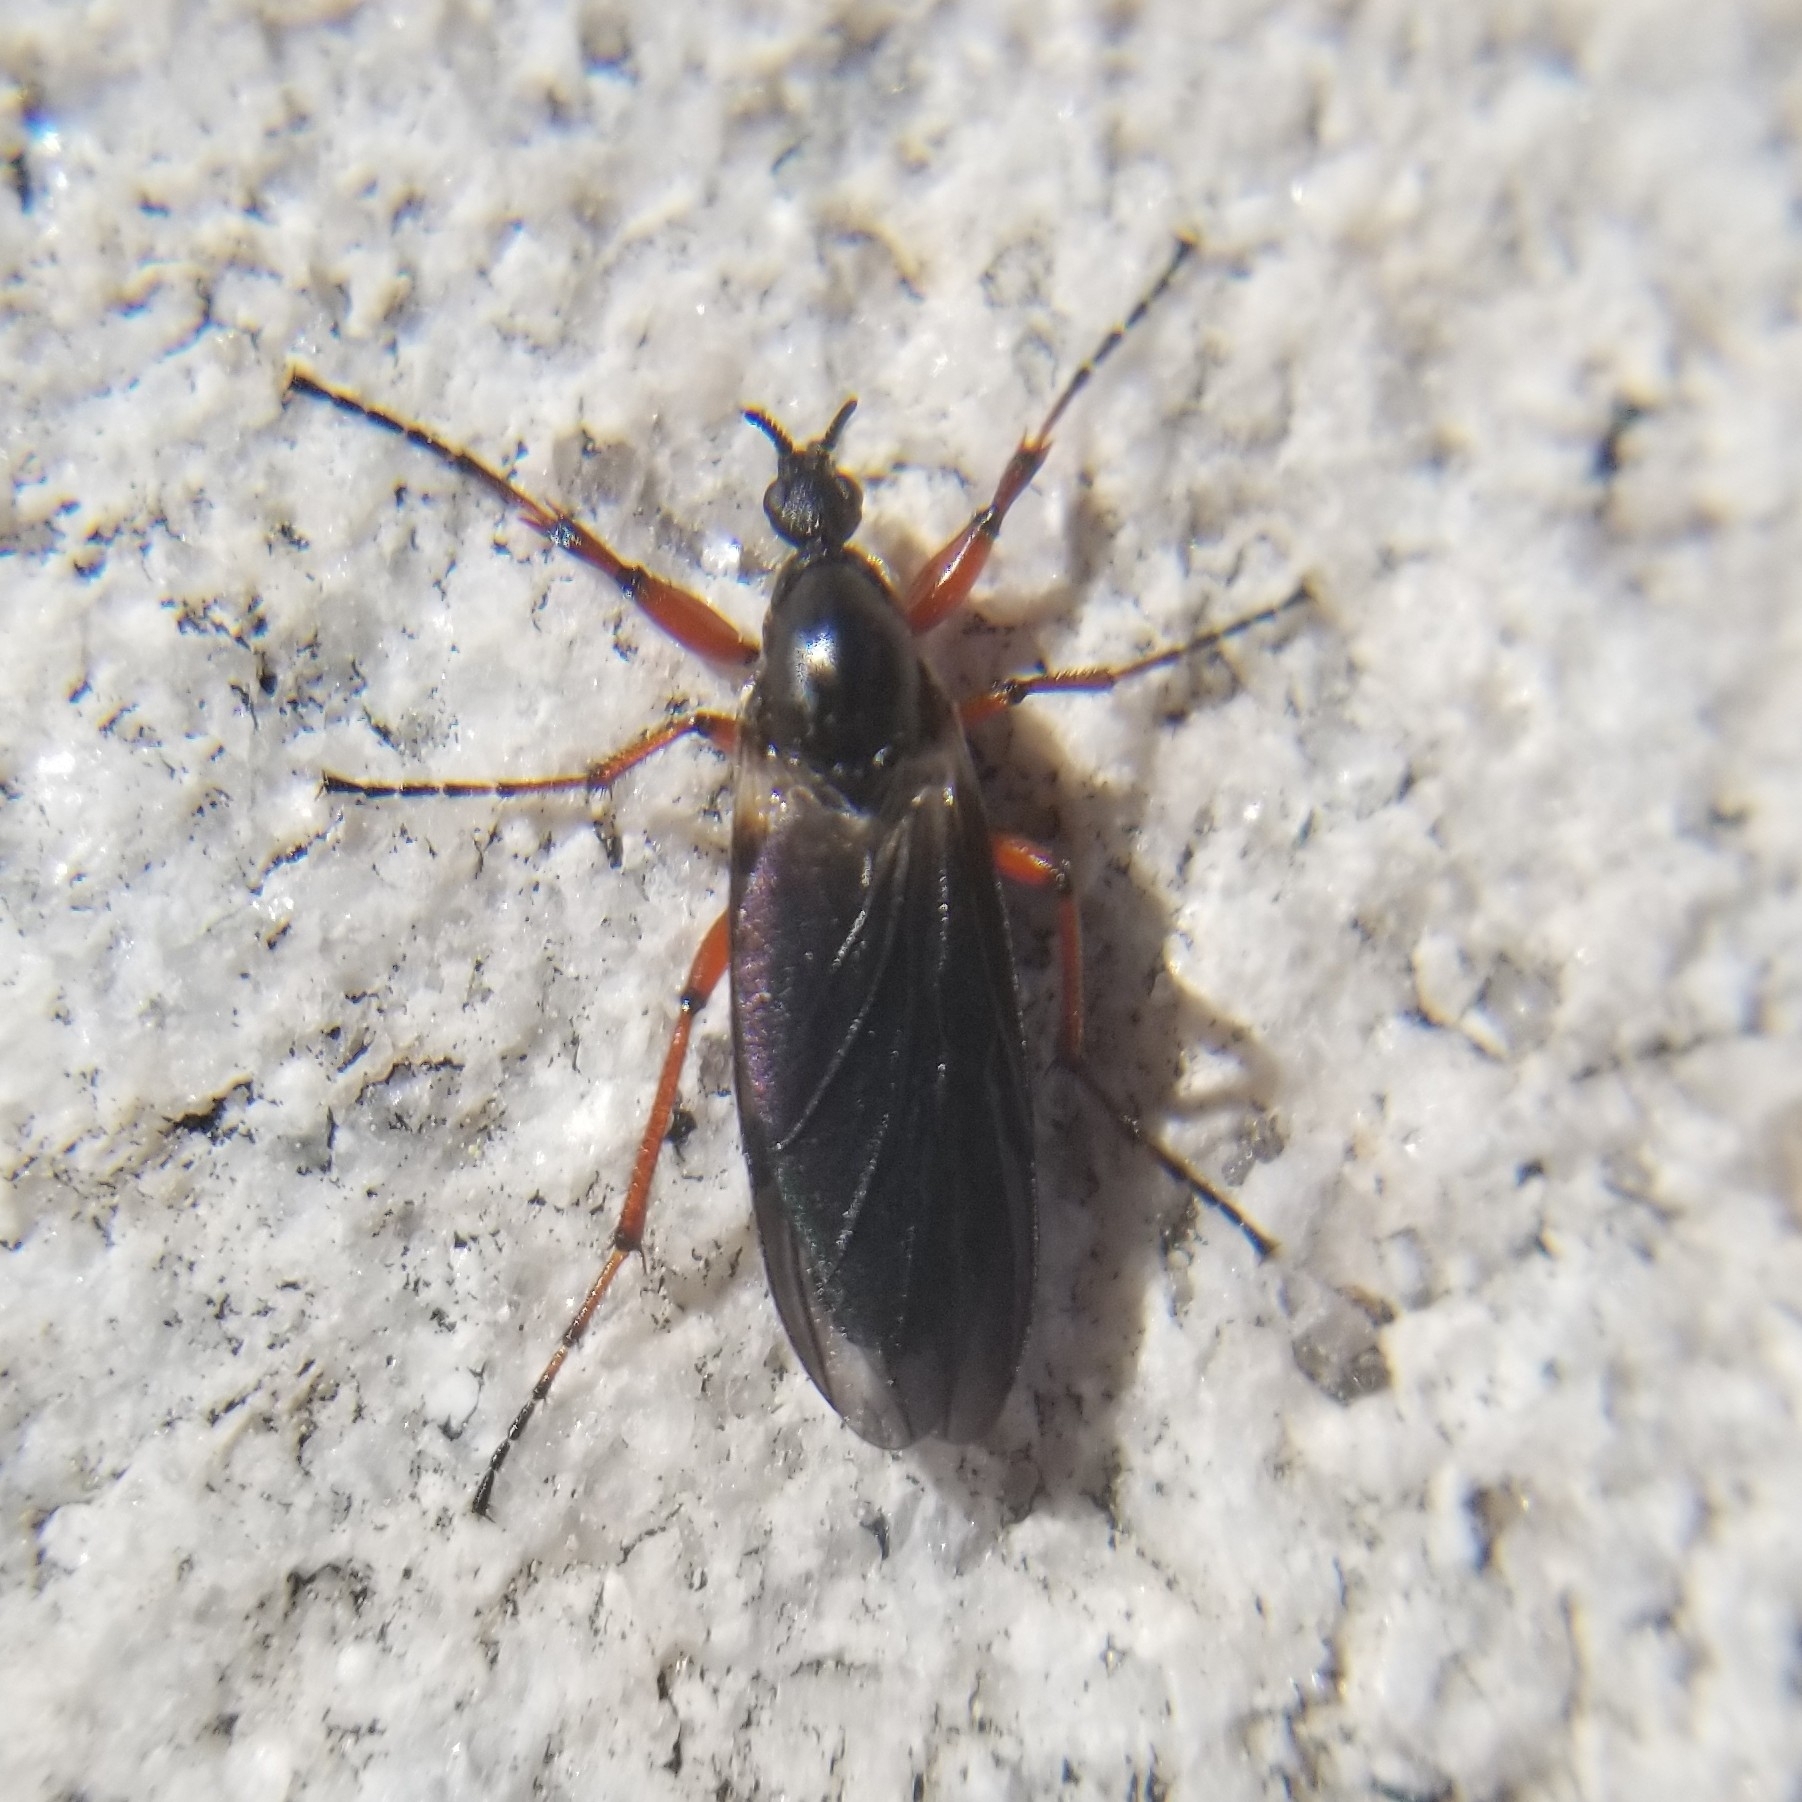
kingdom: Animalia
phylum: Arthropoda
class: Insecta
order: Diptera
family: Bibionidae
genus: Bibio
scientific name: Bibio
